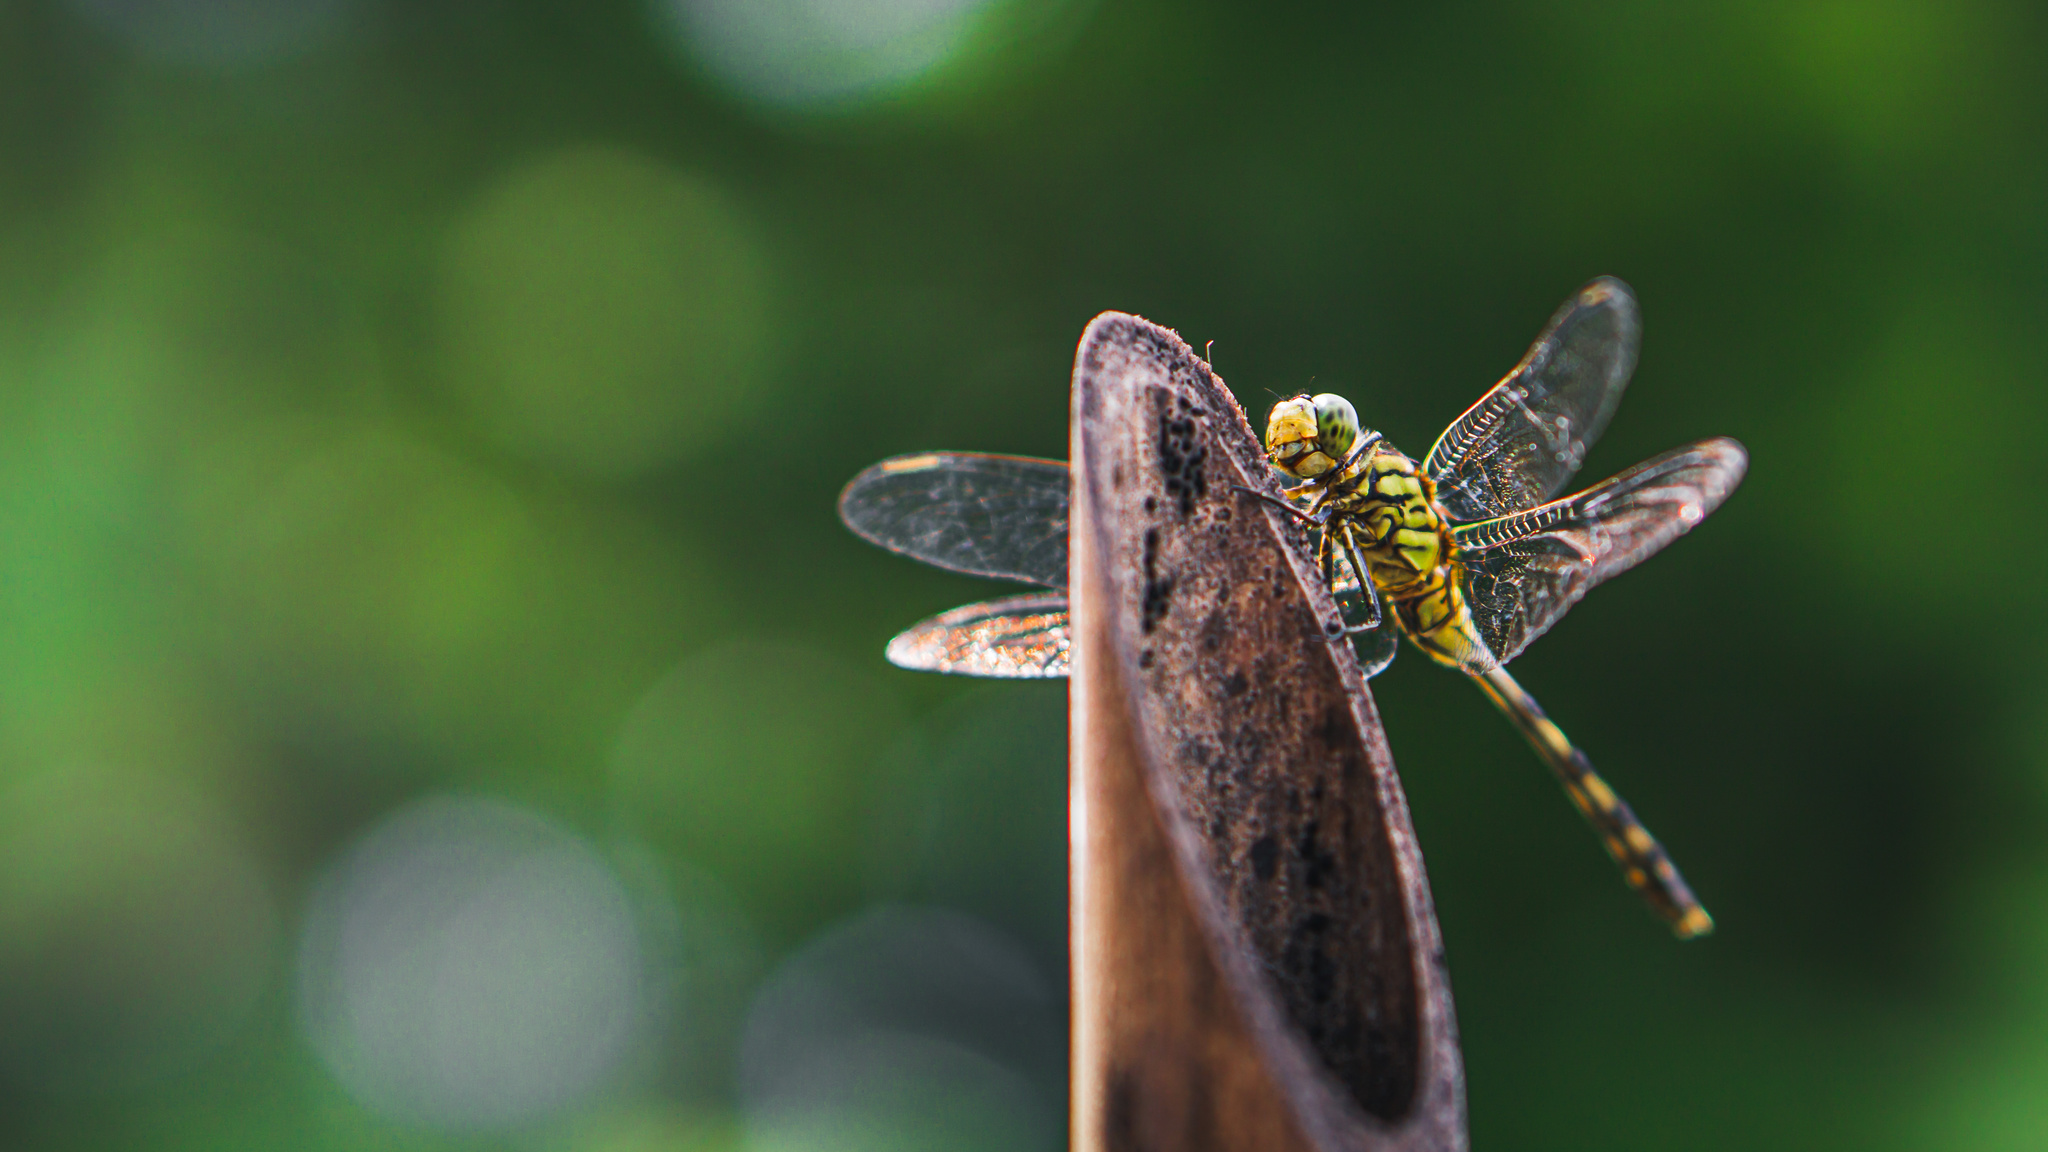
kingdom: Animalia
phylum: Arthropoda
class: Insecta
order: Odonata
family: Libellulidae
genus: Orthetrum
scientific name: Orthetrum serapia
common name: Green skimmer
